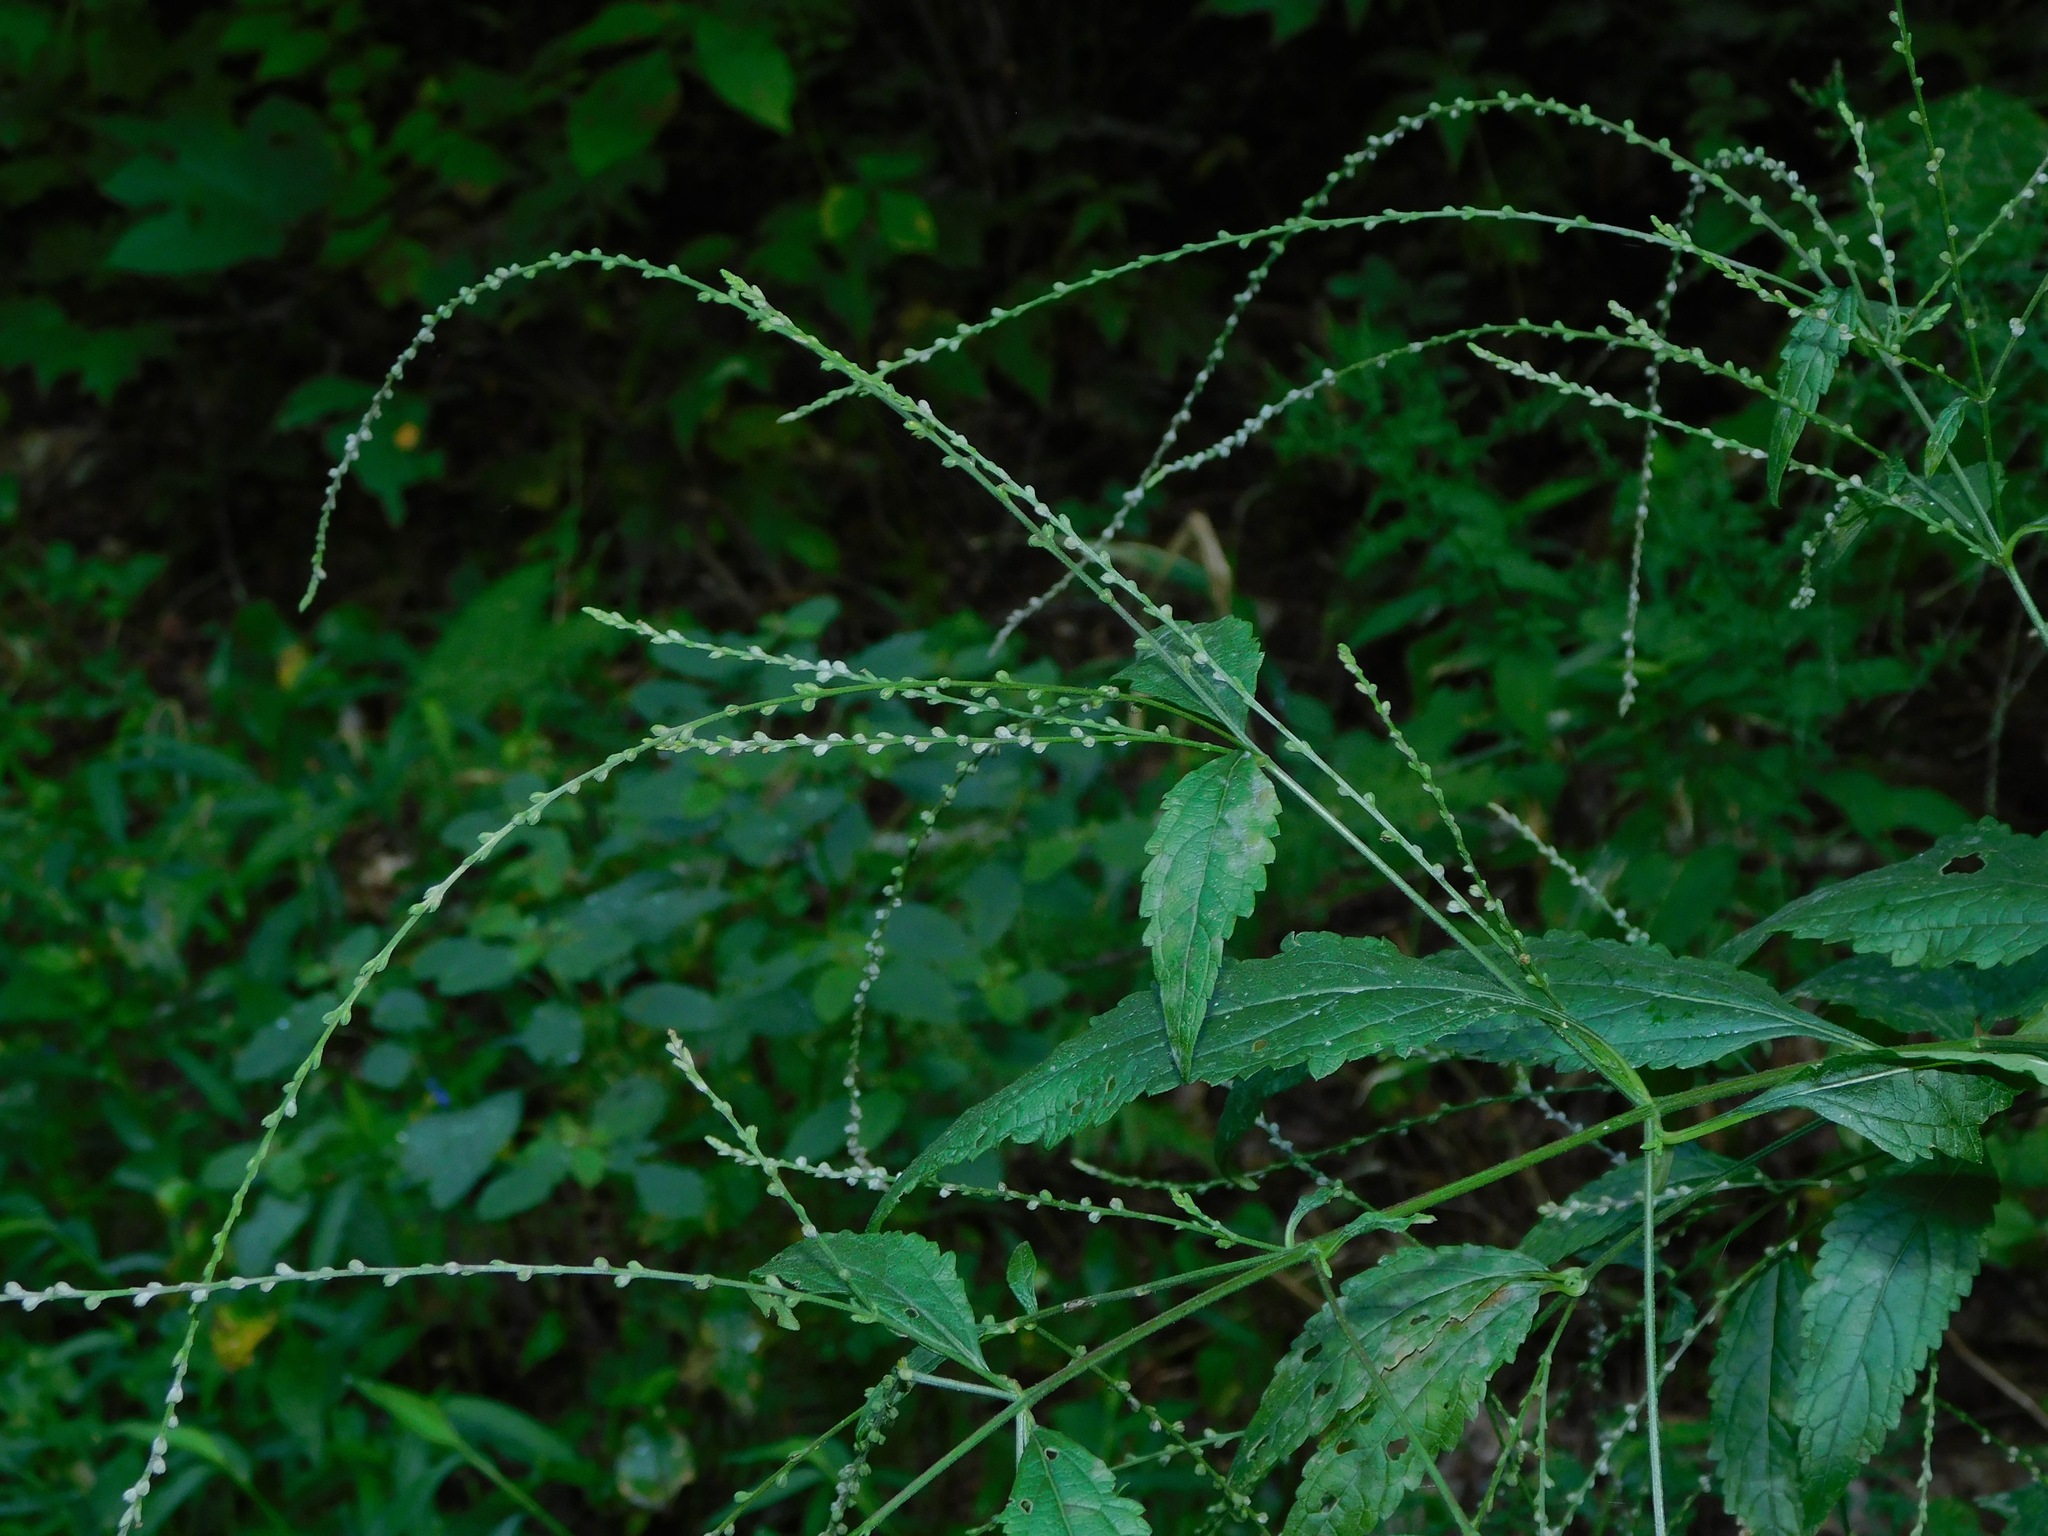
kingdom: Plantae
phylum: Tracheophyta
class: Magnoliopsida
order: Lamiales
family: Verbenaceae
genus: Verbena
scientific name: Verbena urticifolia
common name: Nettle-leaved vervain
